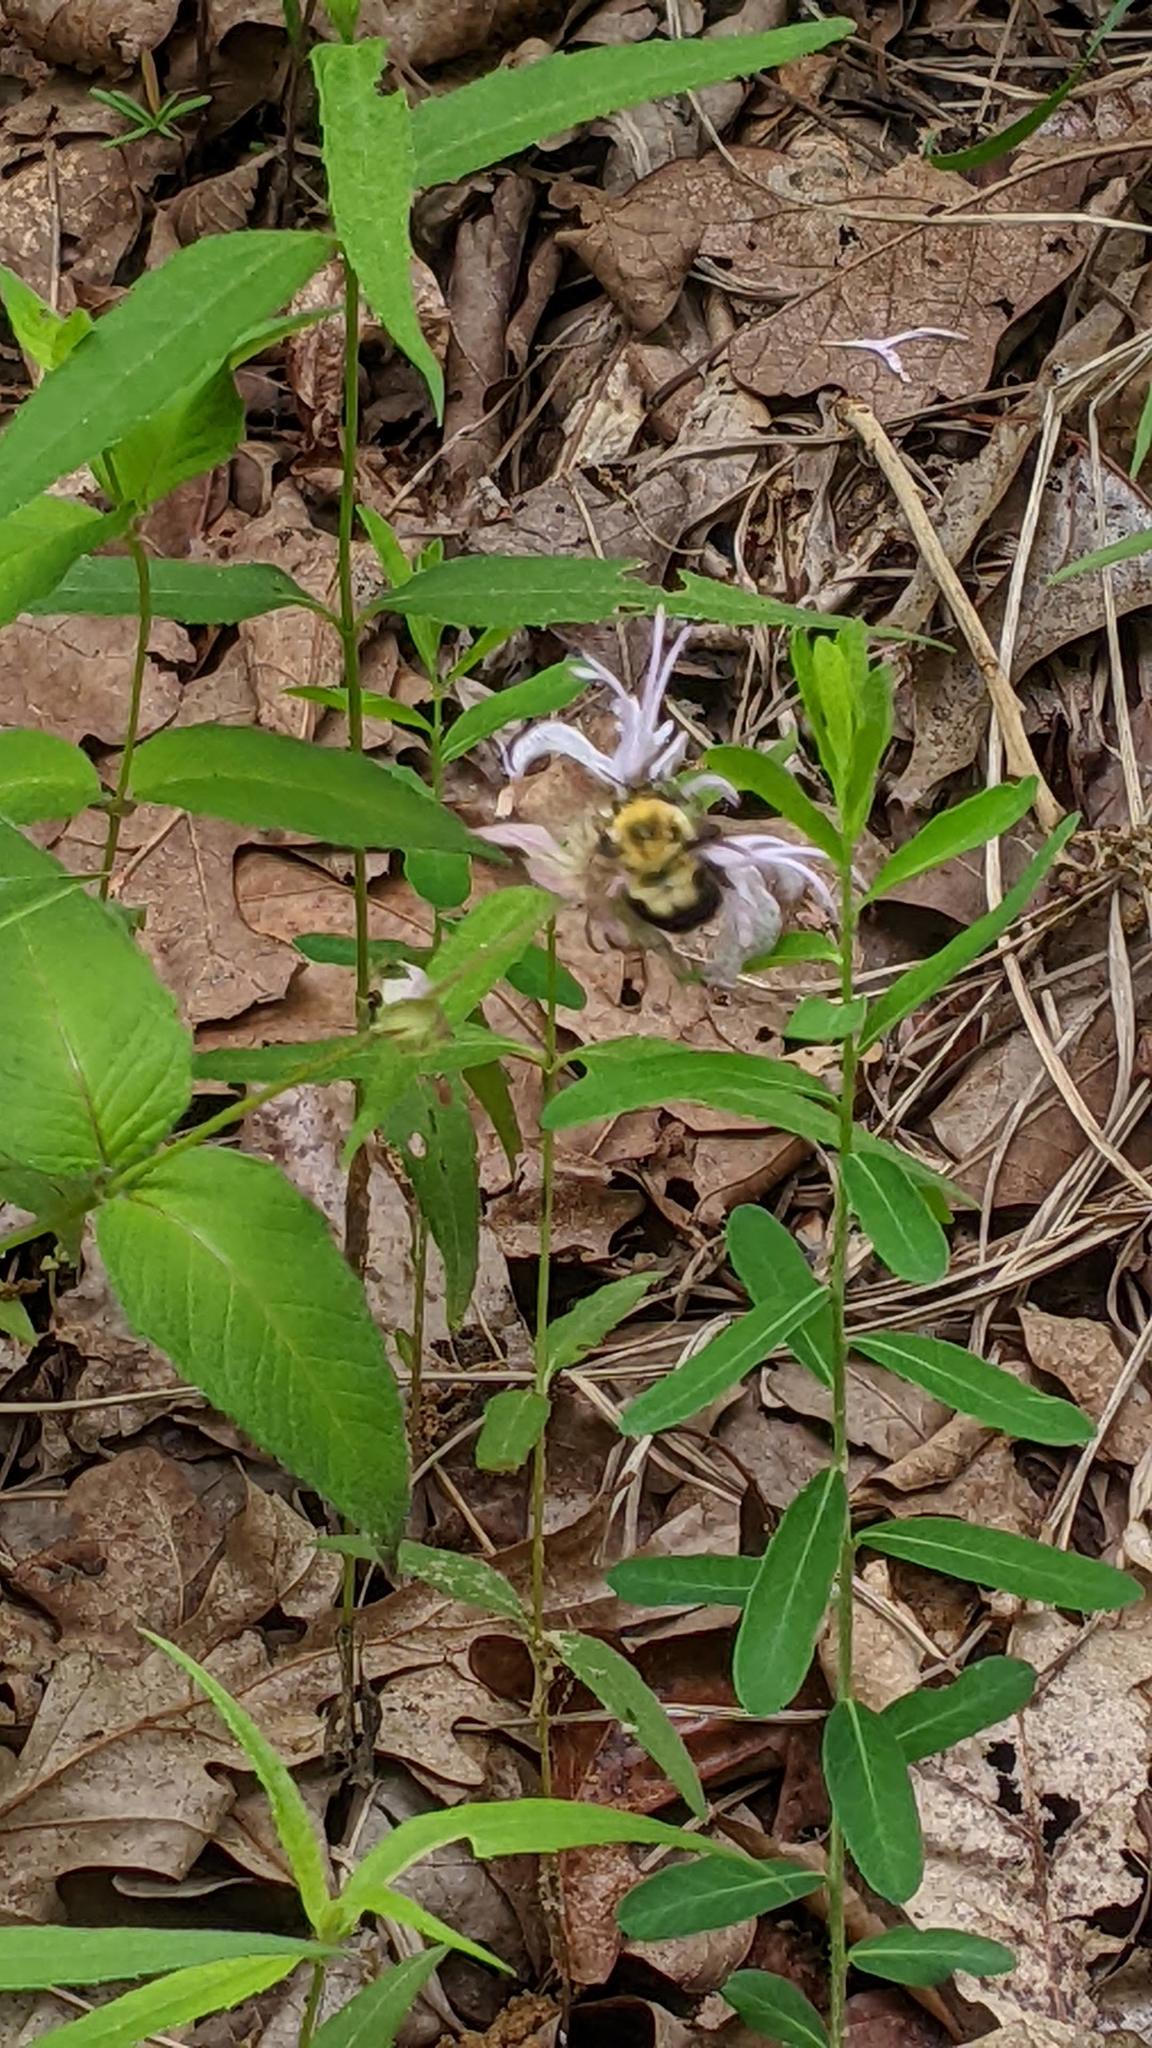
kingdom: Animalia
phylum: Arthropoda
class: Insecta
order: Hymenoptera
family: Apidae
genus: Bombus
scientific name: Bombus bimaculatus
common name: Two-spotted bumble bee
